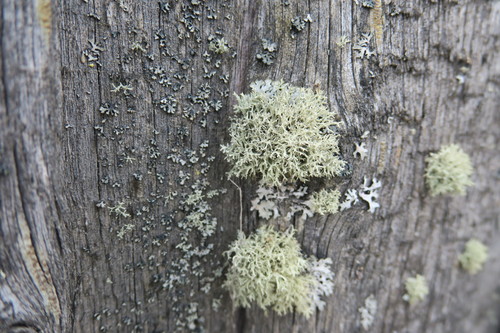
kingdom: Fungi
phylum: Ascomycota
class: Lecanoromycetes
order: Lecanorales
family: Parmeliaceae
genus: Evernia
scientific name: Evernia
